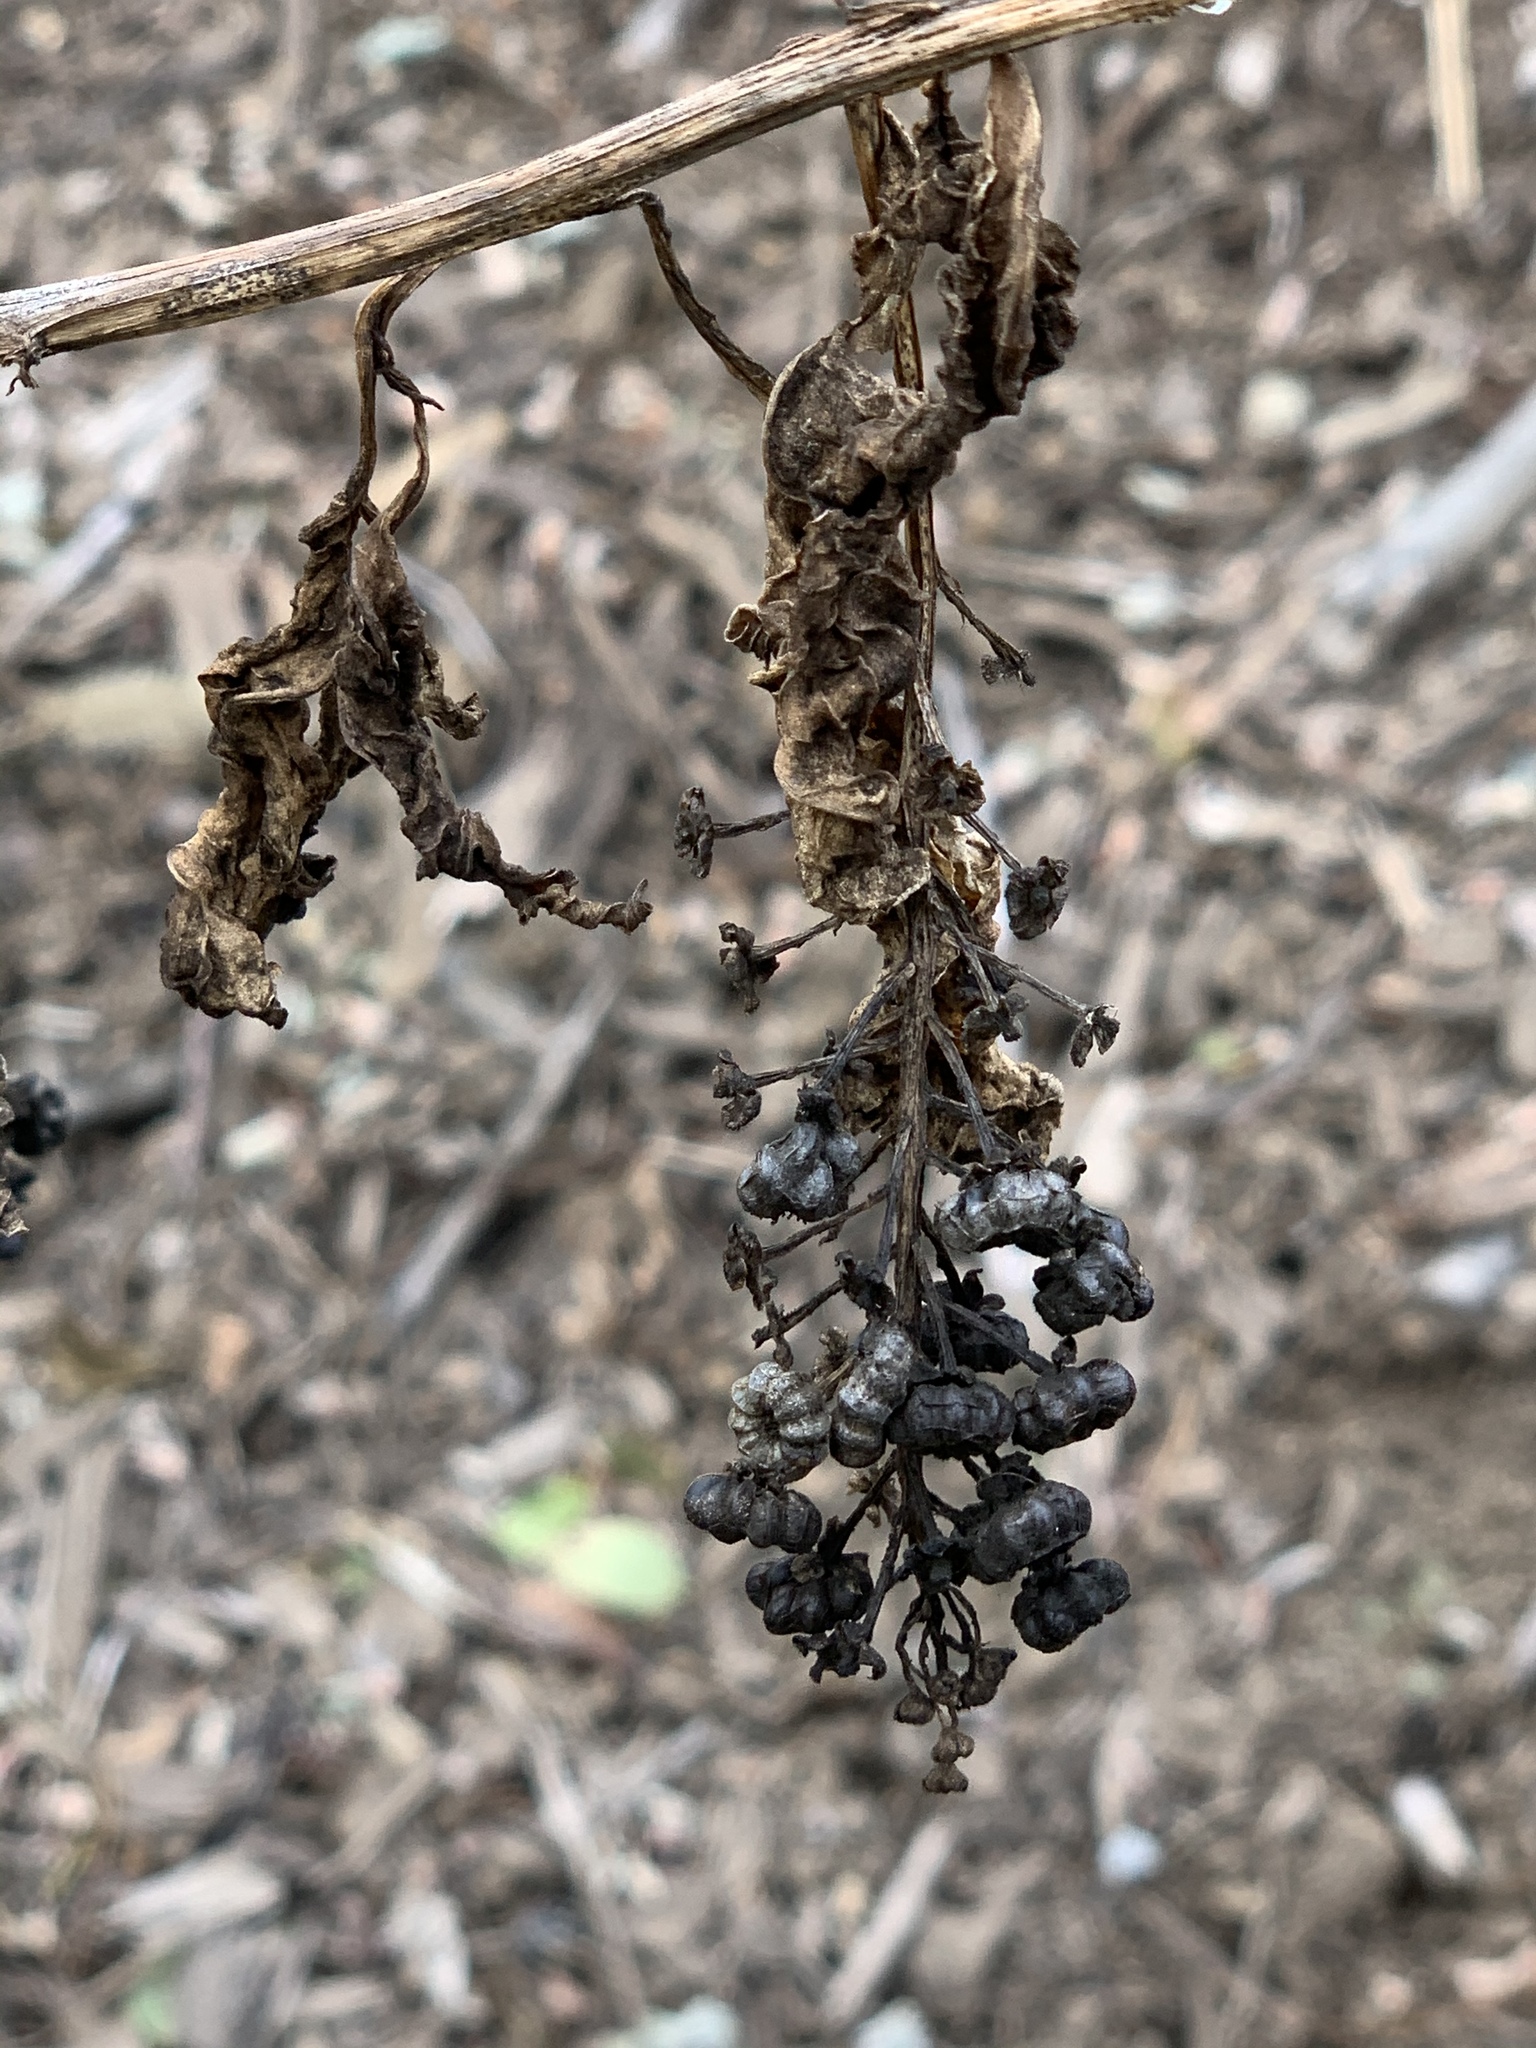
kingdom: Plantae
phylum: Tracheophyta
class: Magnoliopsida
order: Caryophyllales
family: Phytolaccaceae
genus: Phytolacca
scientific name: Phytolacca americana
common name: American pokeweed
